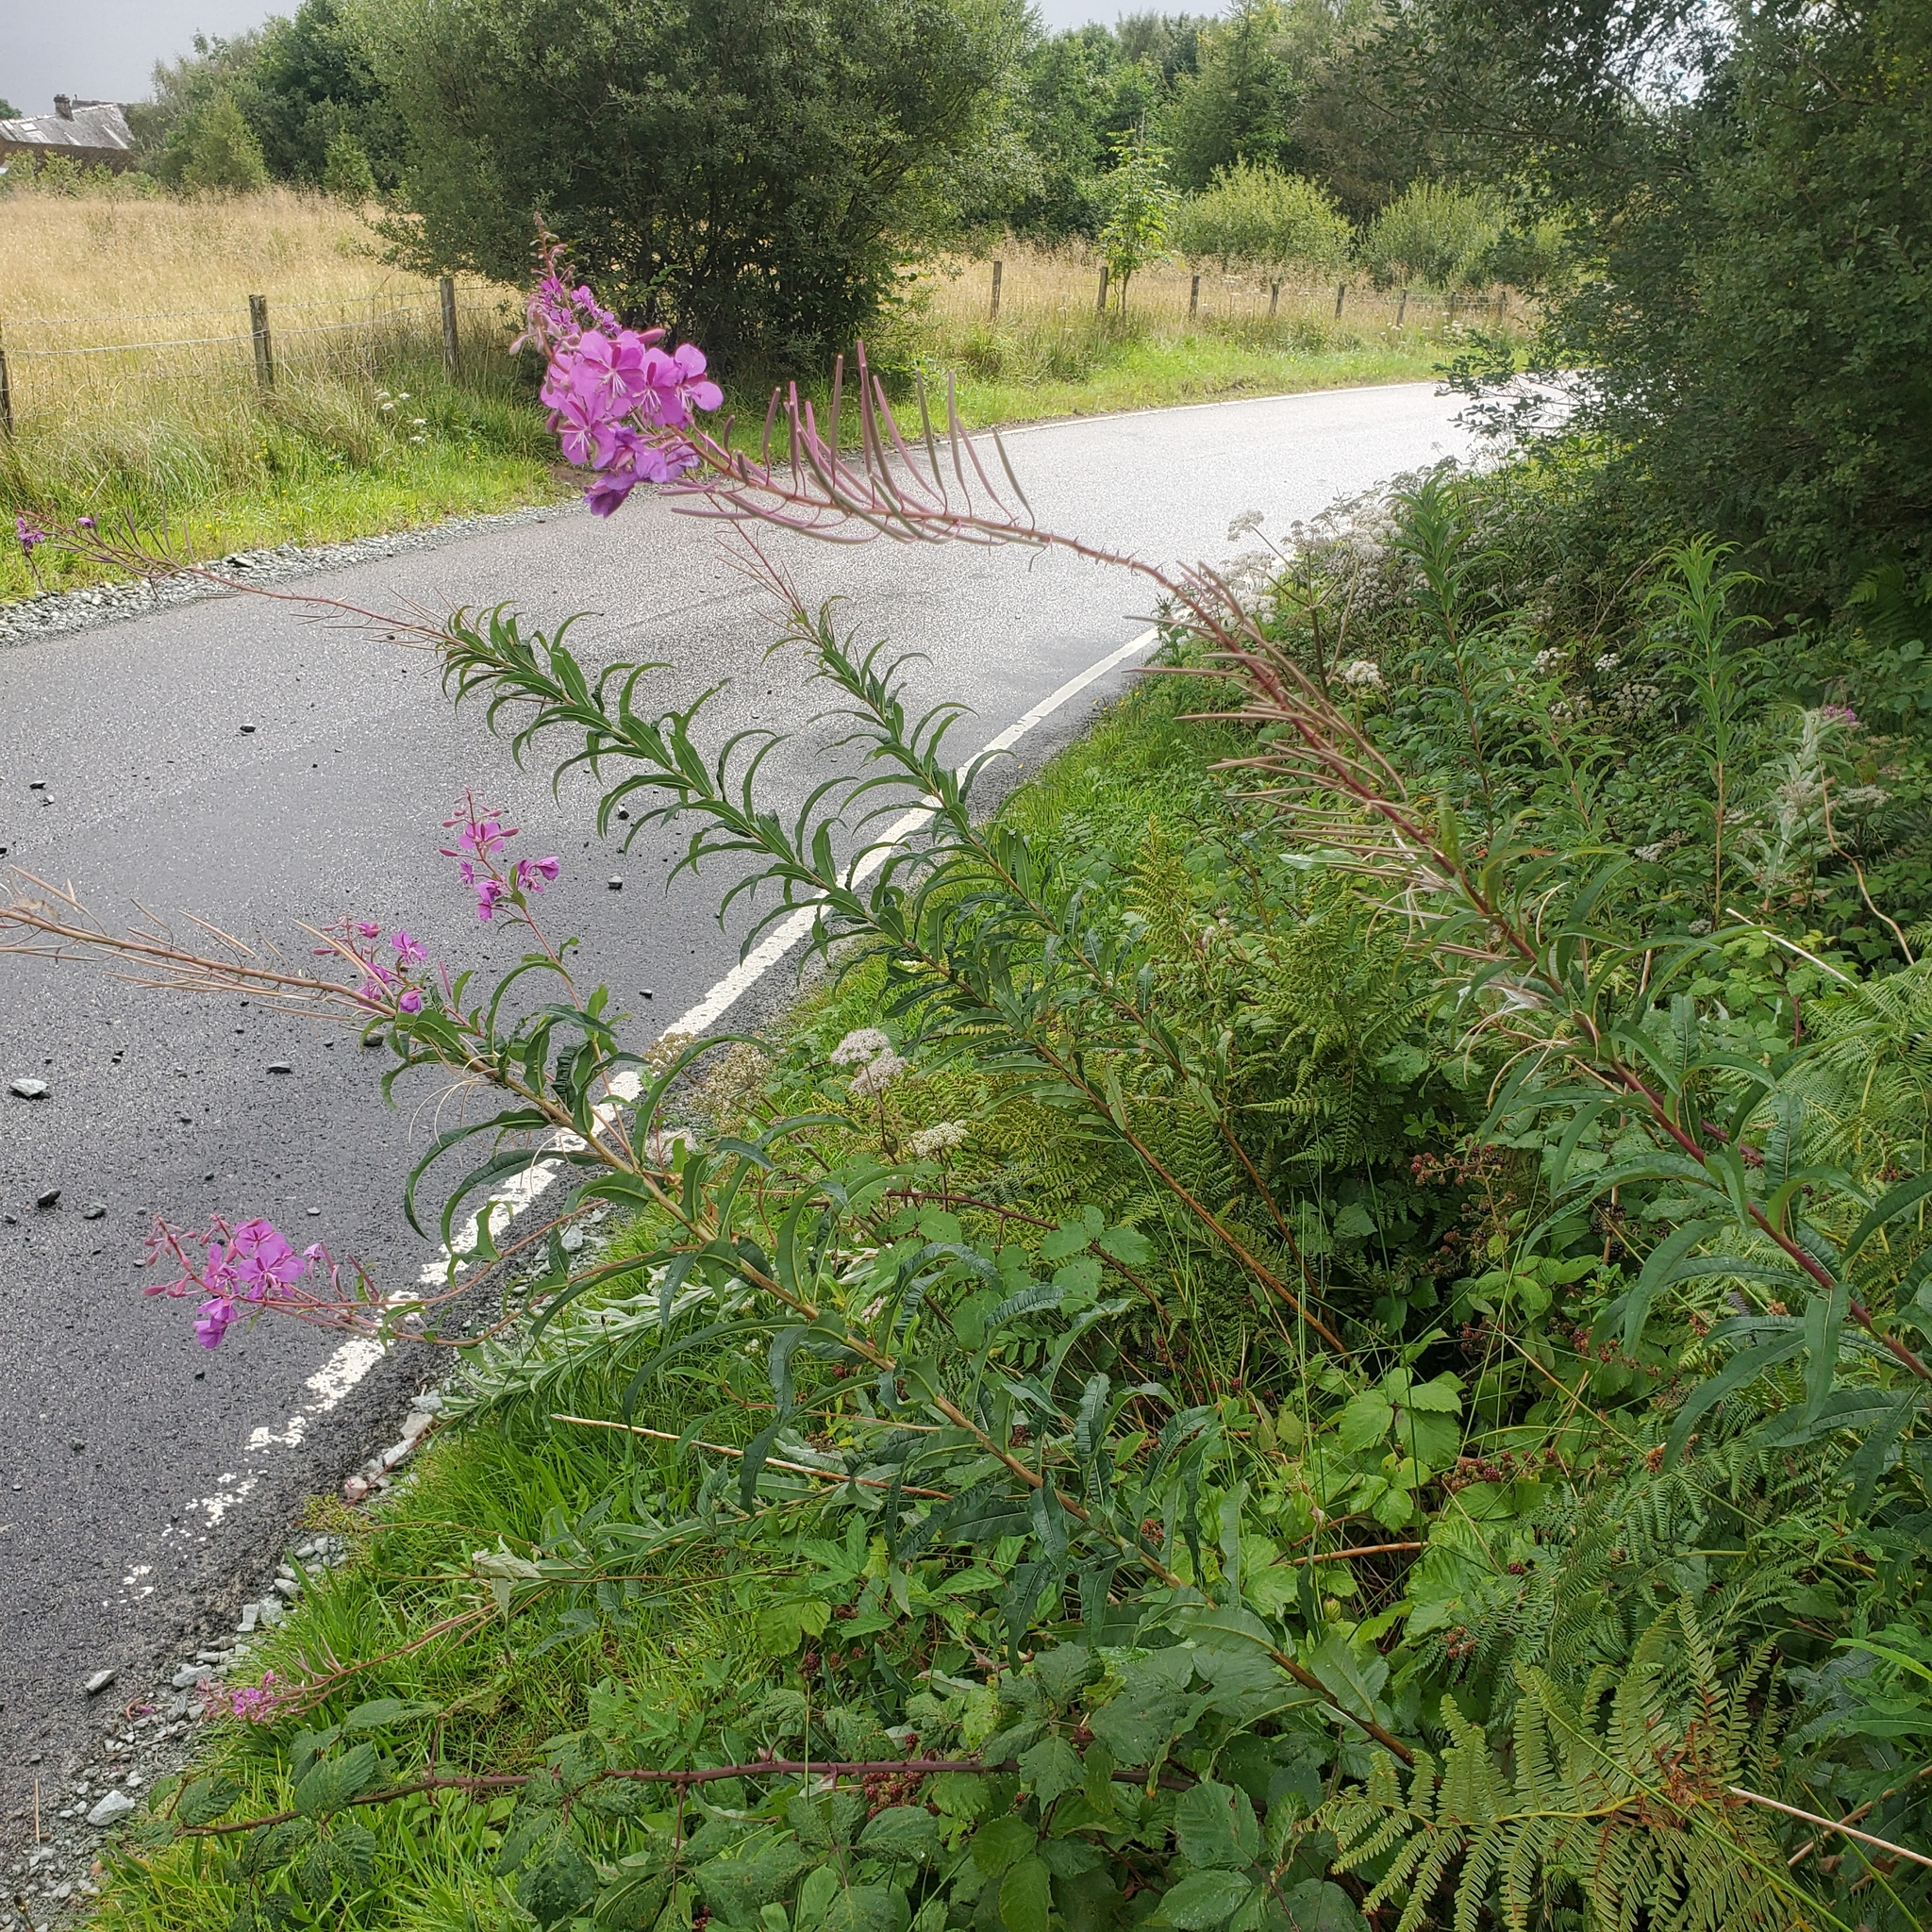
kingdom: Plantae
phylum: Tracheophyta
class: Magnoliopsida
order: Myrtales
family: Onagraceae
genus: Chamaenerion
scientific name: Chamaenerion angustifolium
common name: Fireweed
